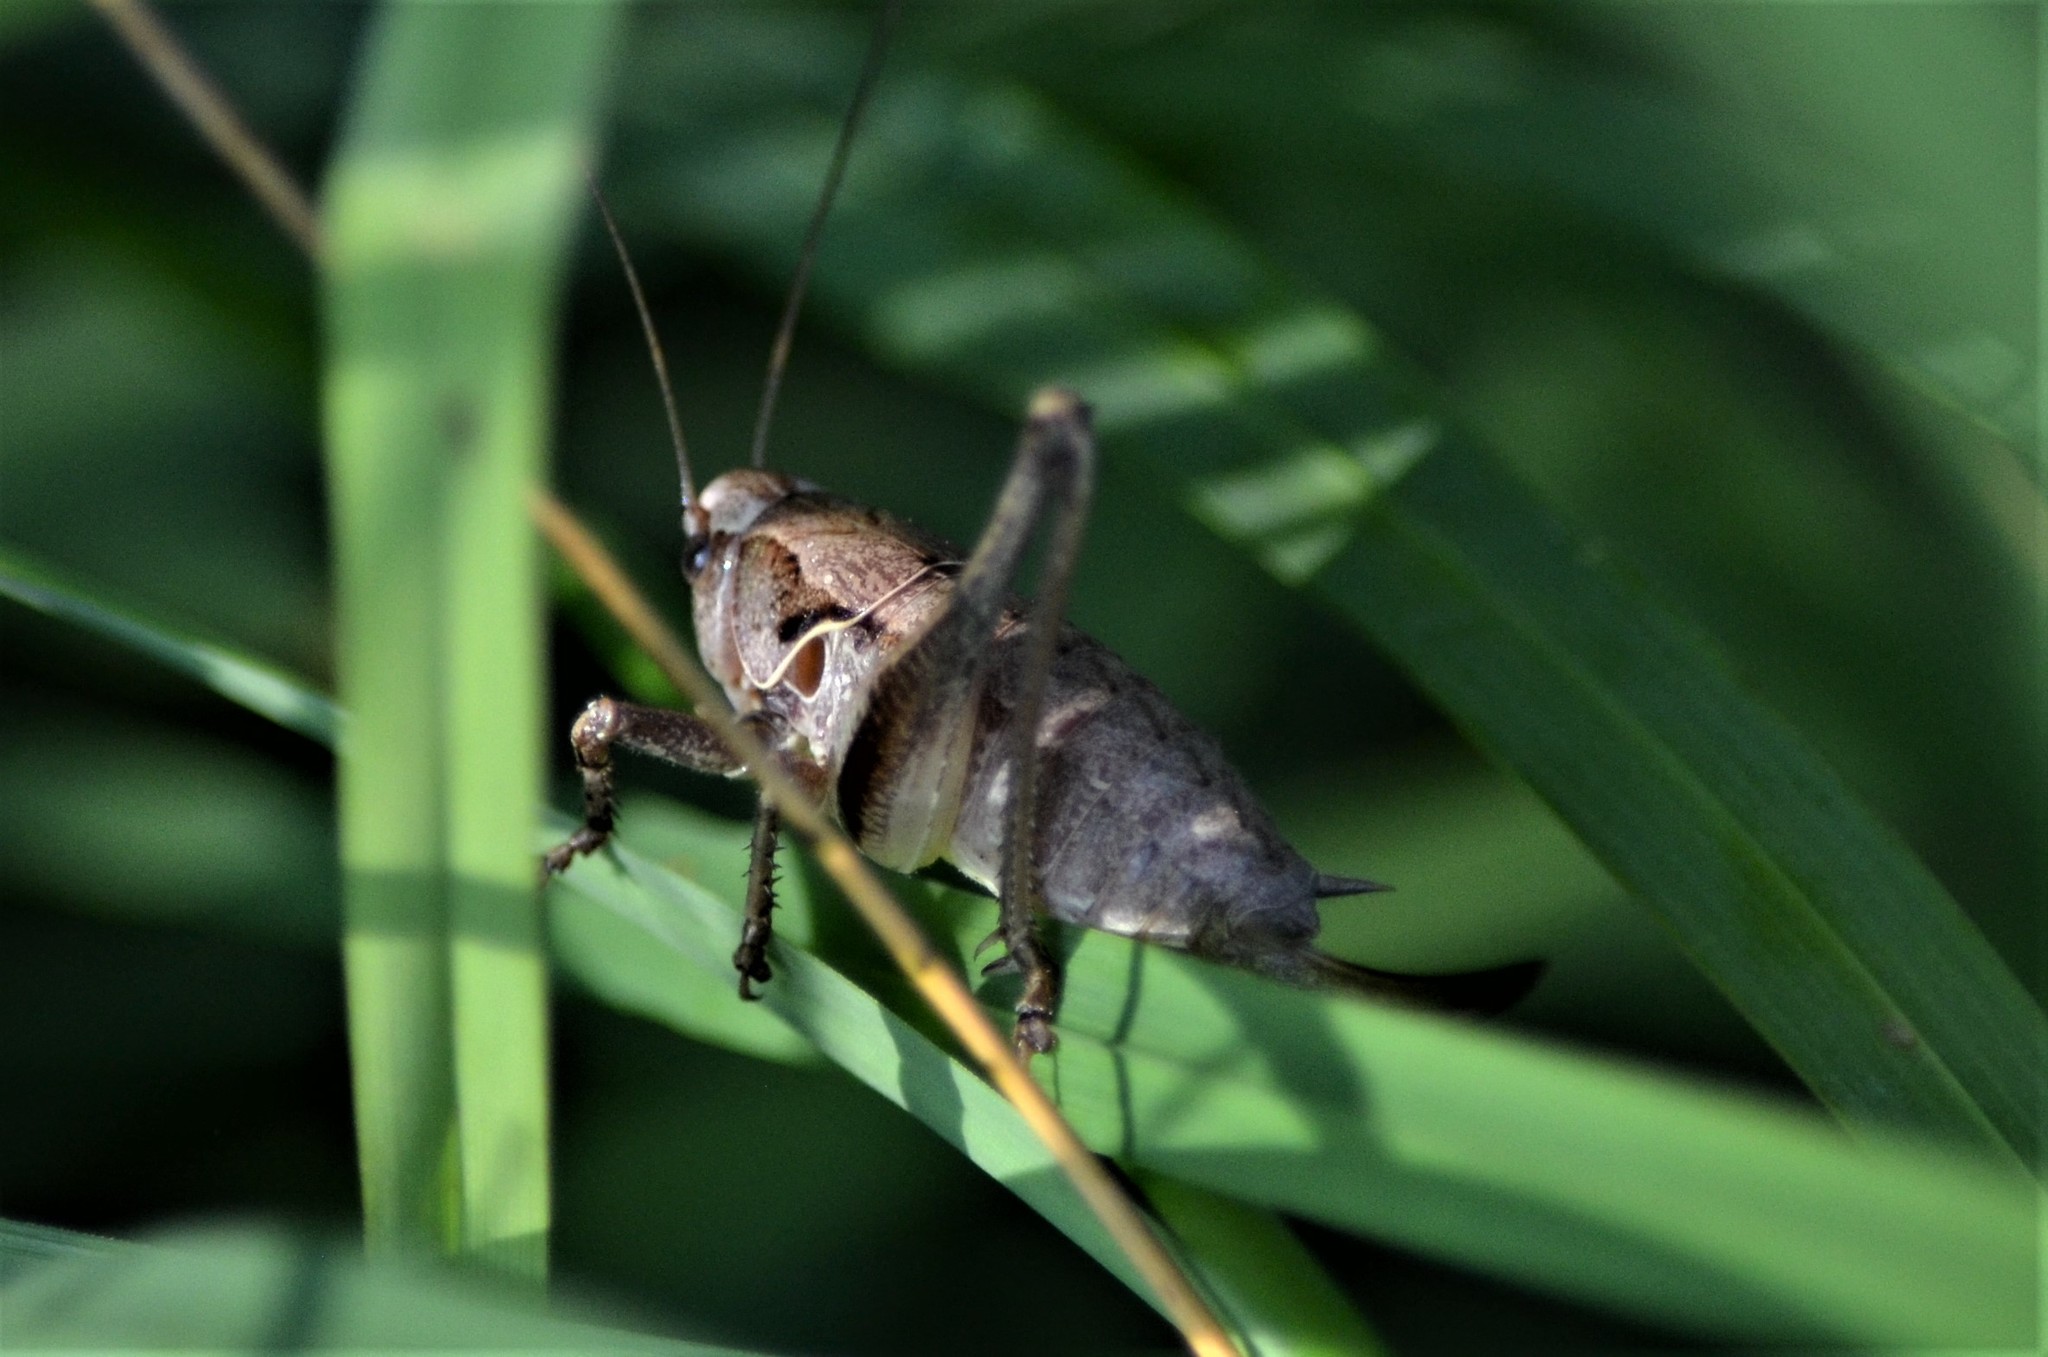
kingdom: Animalia
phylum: Arthropoda
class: Insecta
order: Orthoptera
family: Tettigoniidae
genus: Pholidoptera
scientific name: Pholidoptera griseoaptera
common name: Dark bush-cricket
